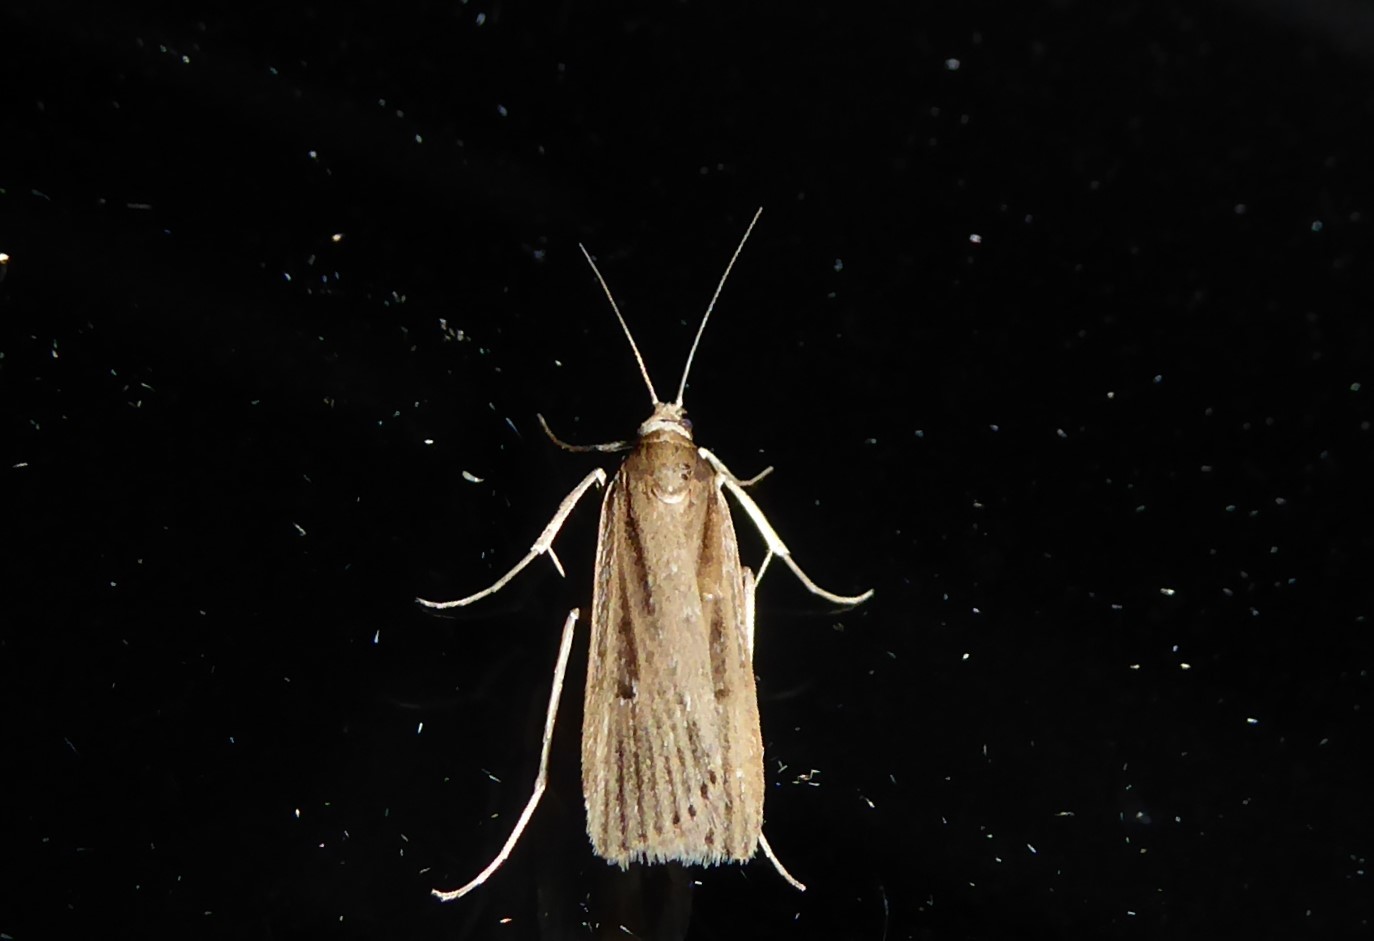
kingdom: Animalia
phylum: Arthropoda
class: Insecta
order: Lepidoptera
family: Crambidae
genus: Eudonia
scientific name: Eudonia sabulosella
